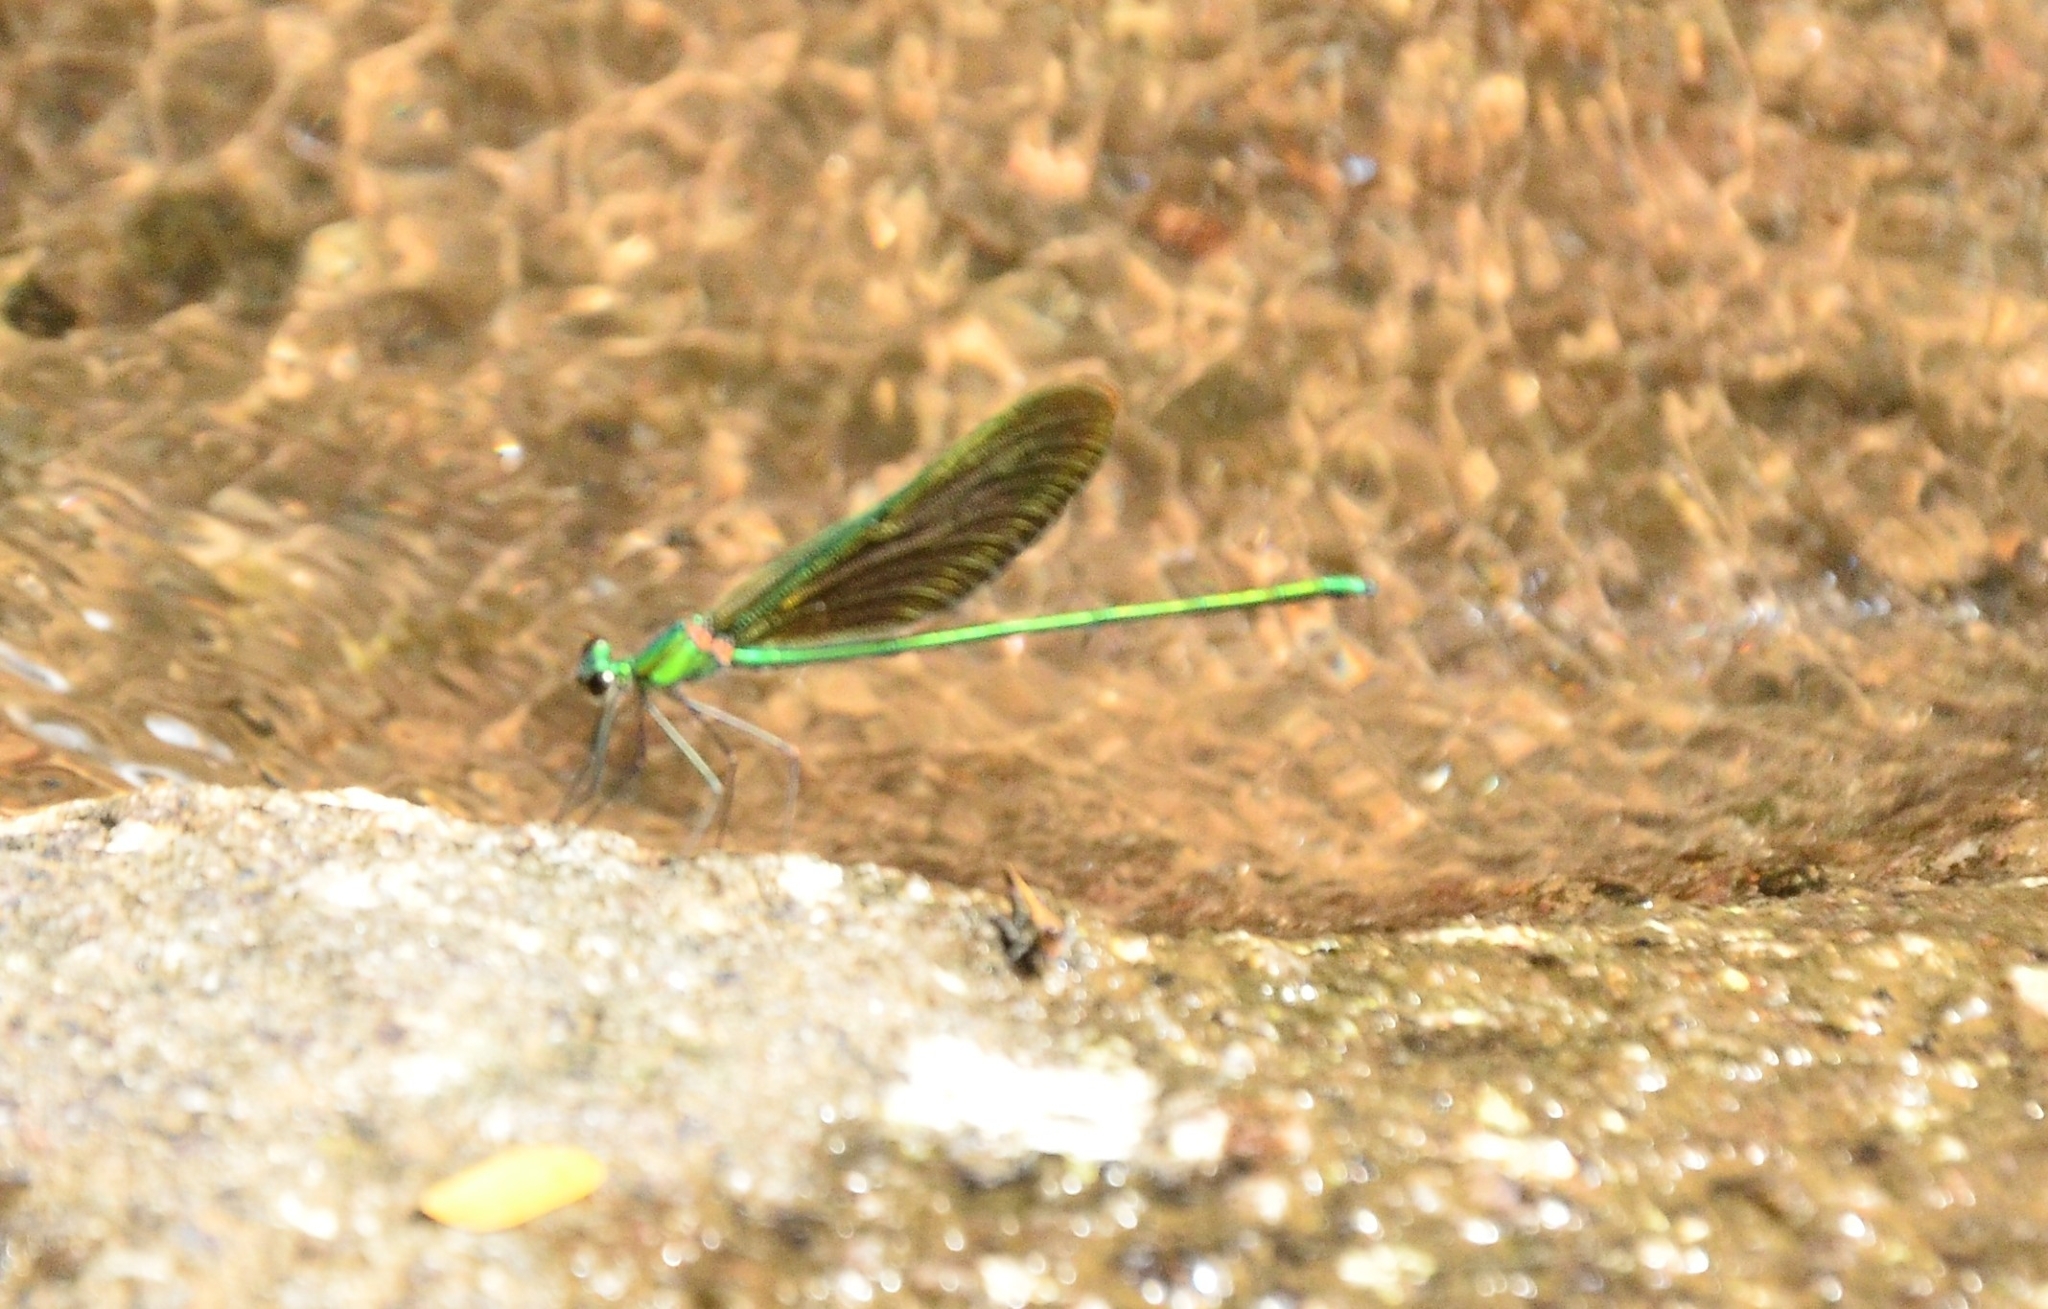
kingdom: Animalia
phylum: Arthropoda
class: Insecta
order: Odonata
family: Calopterygidae
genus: Neurobasis
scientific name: Neurobasis chinensis
